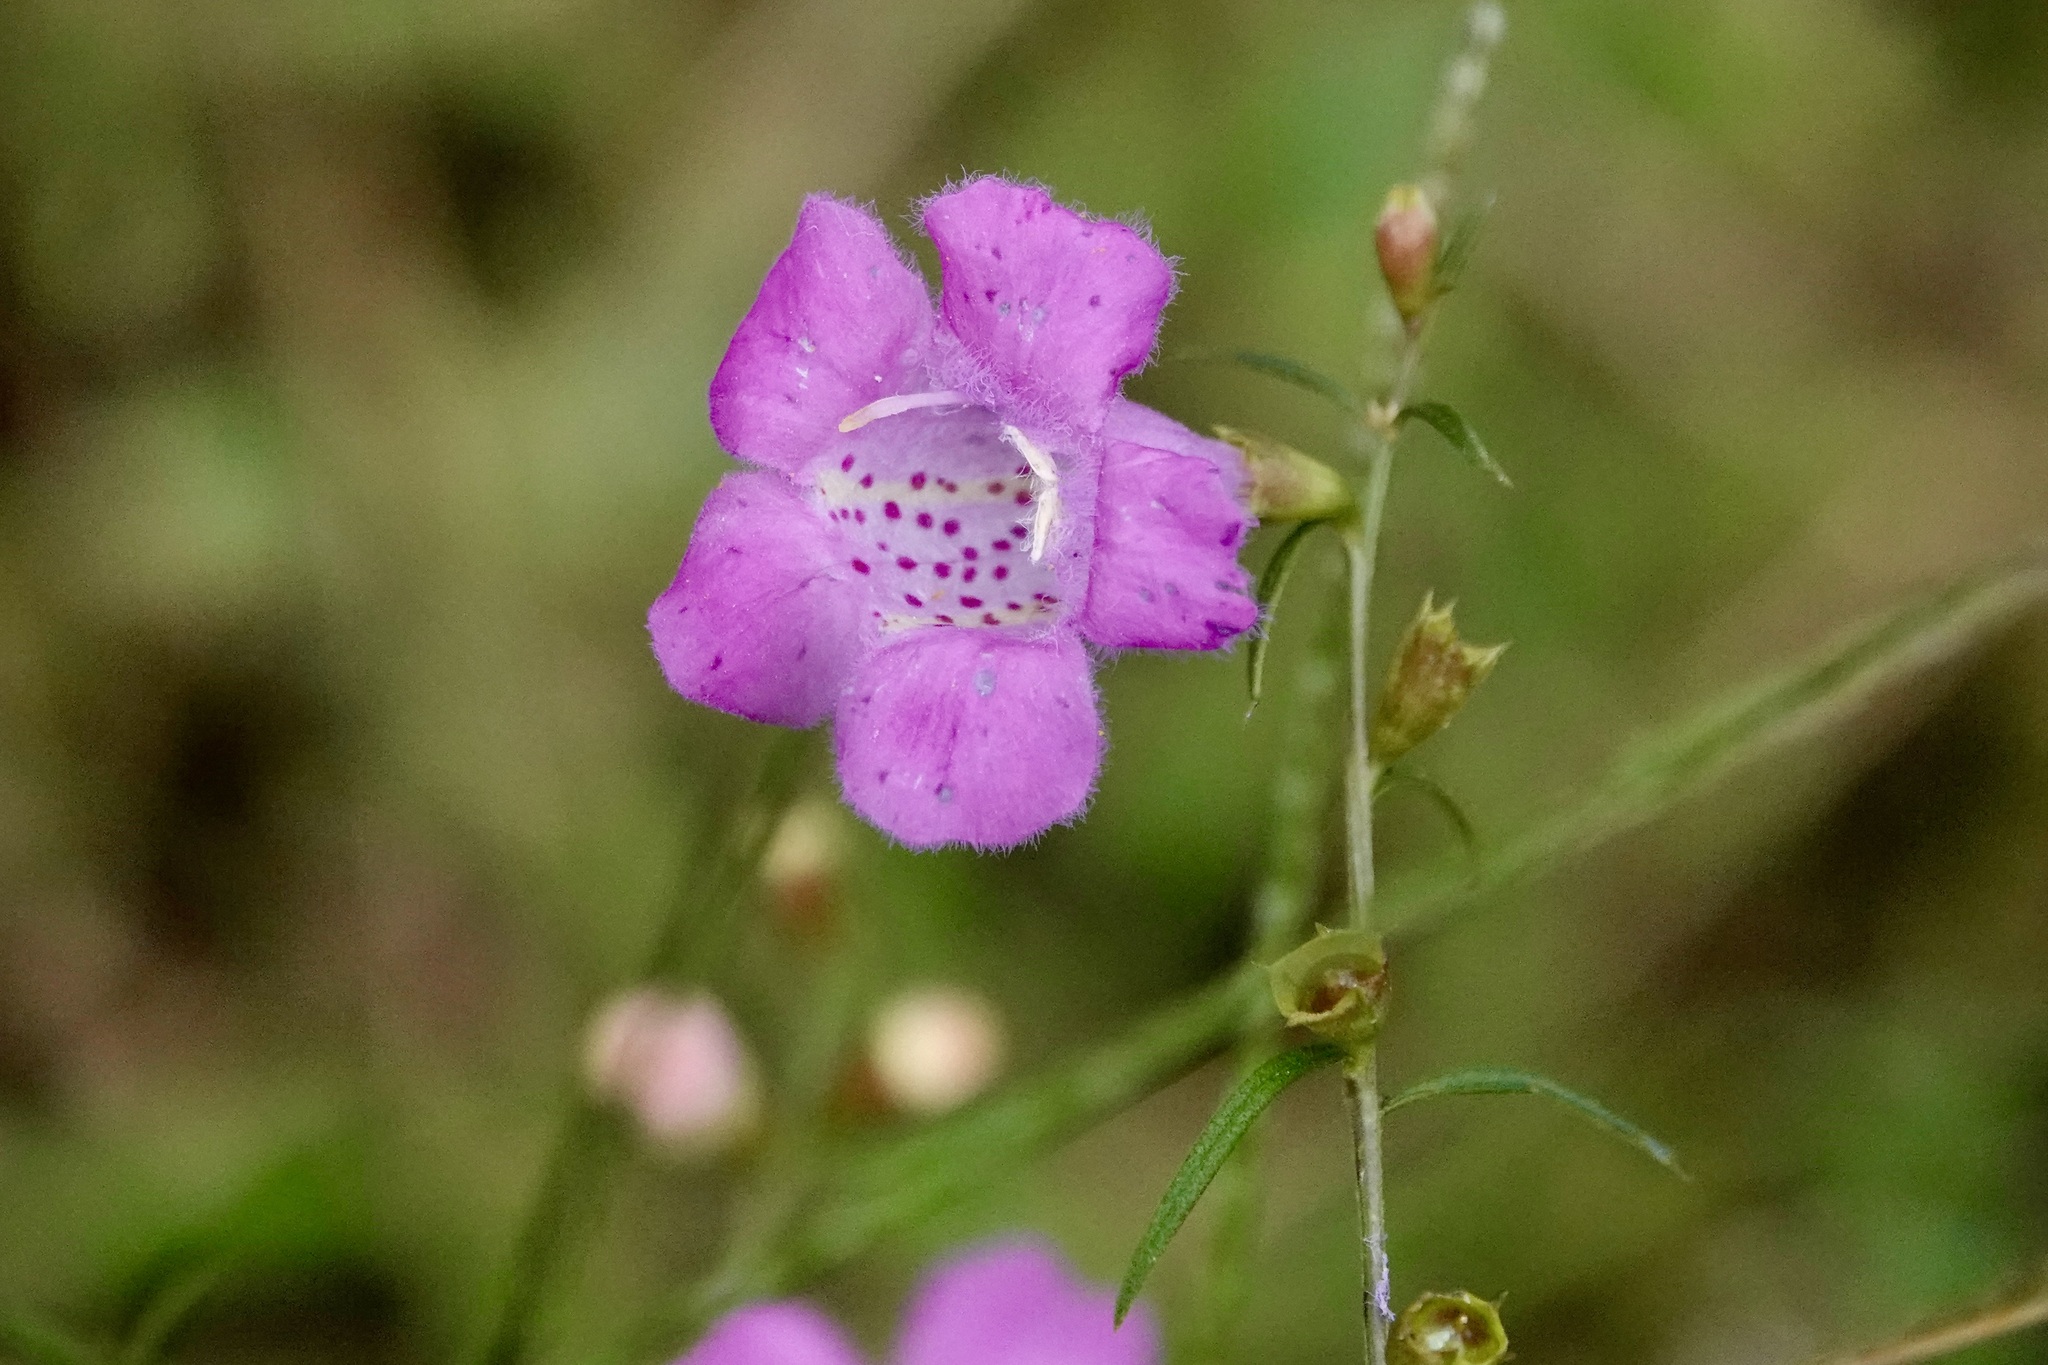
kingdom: Plantae
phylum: Tracheophyta
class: Magnoliopsida
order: Lamiales
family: Orobanchaceae
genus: Agalinis
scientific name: Agalinis purpurea
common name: Purple false foxglove
